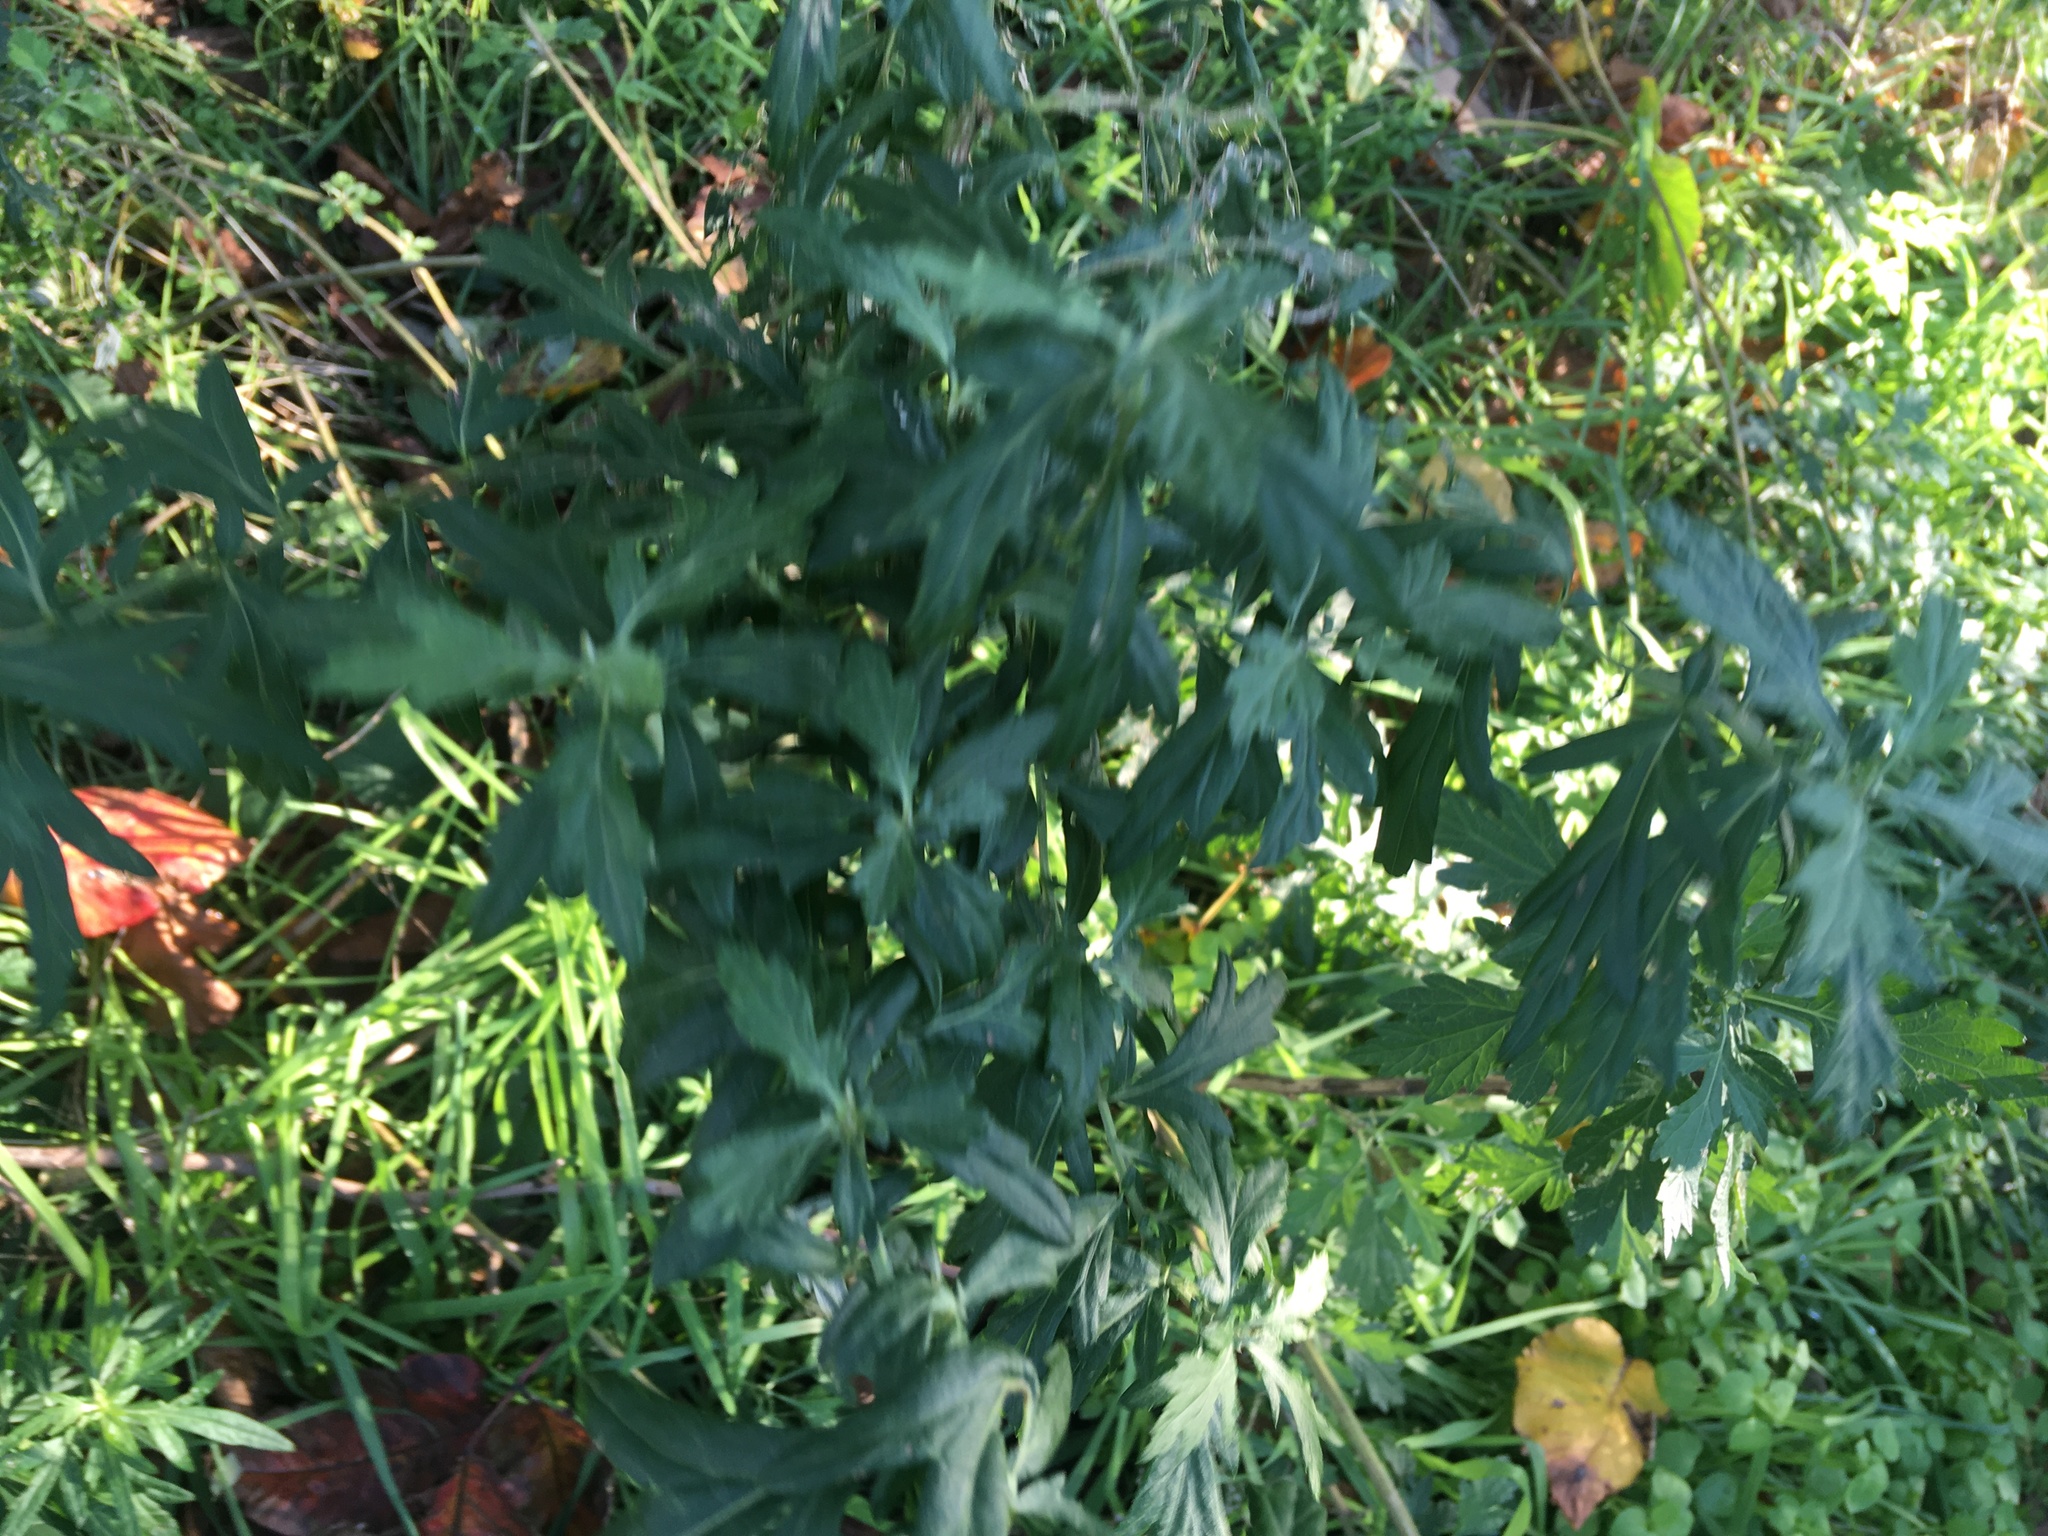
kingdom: Plantae
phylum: Tracheophyta
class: Magnoliopsida
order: Asterales
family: Asteraceae
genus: Artemisia
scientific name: Artemisia vulgaris
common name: Mugwort
